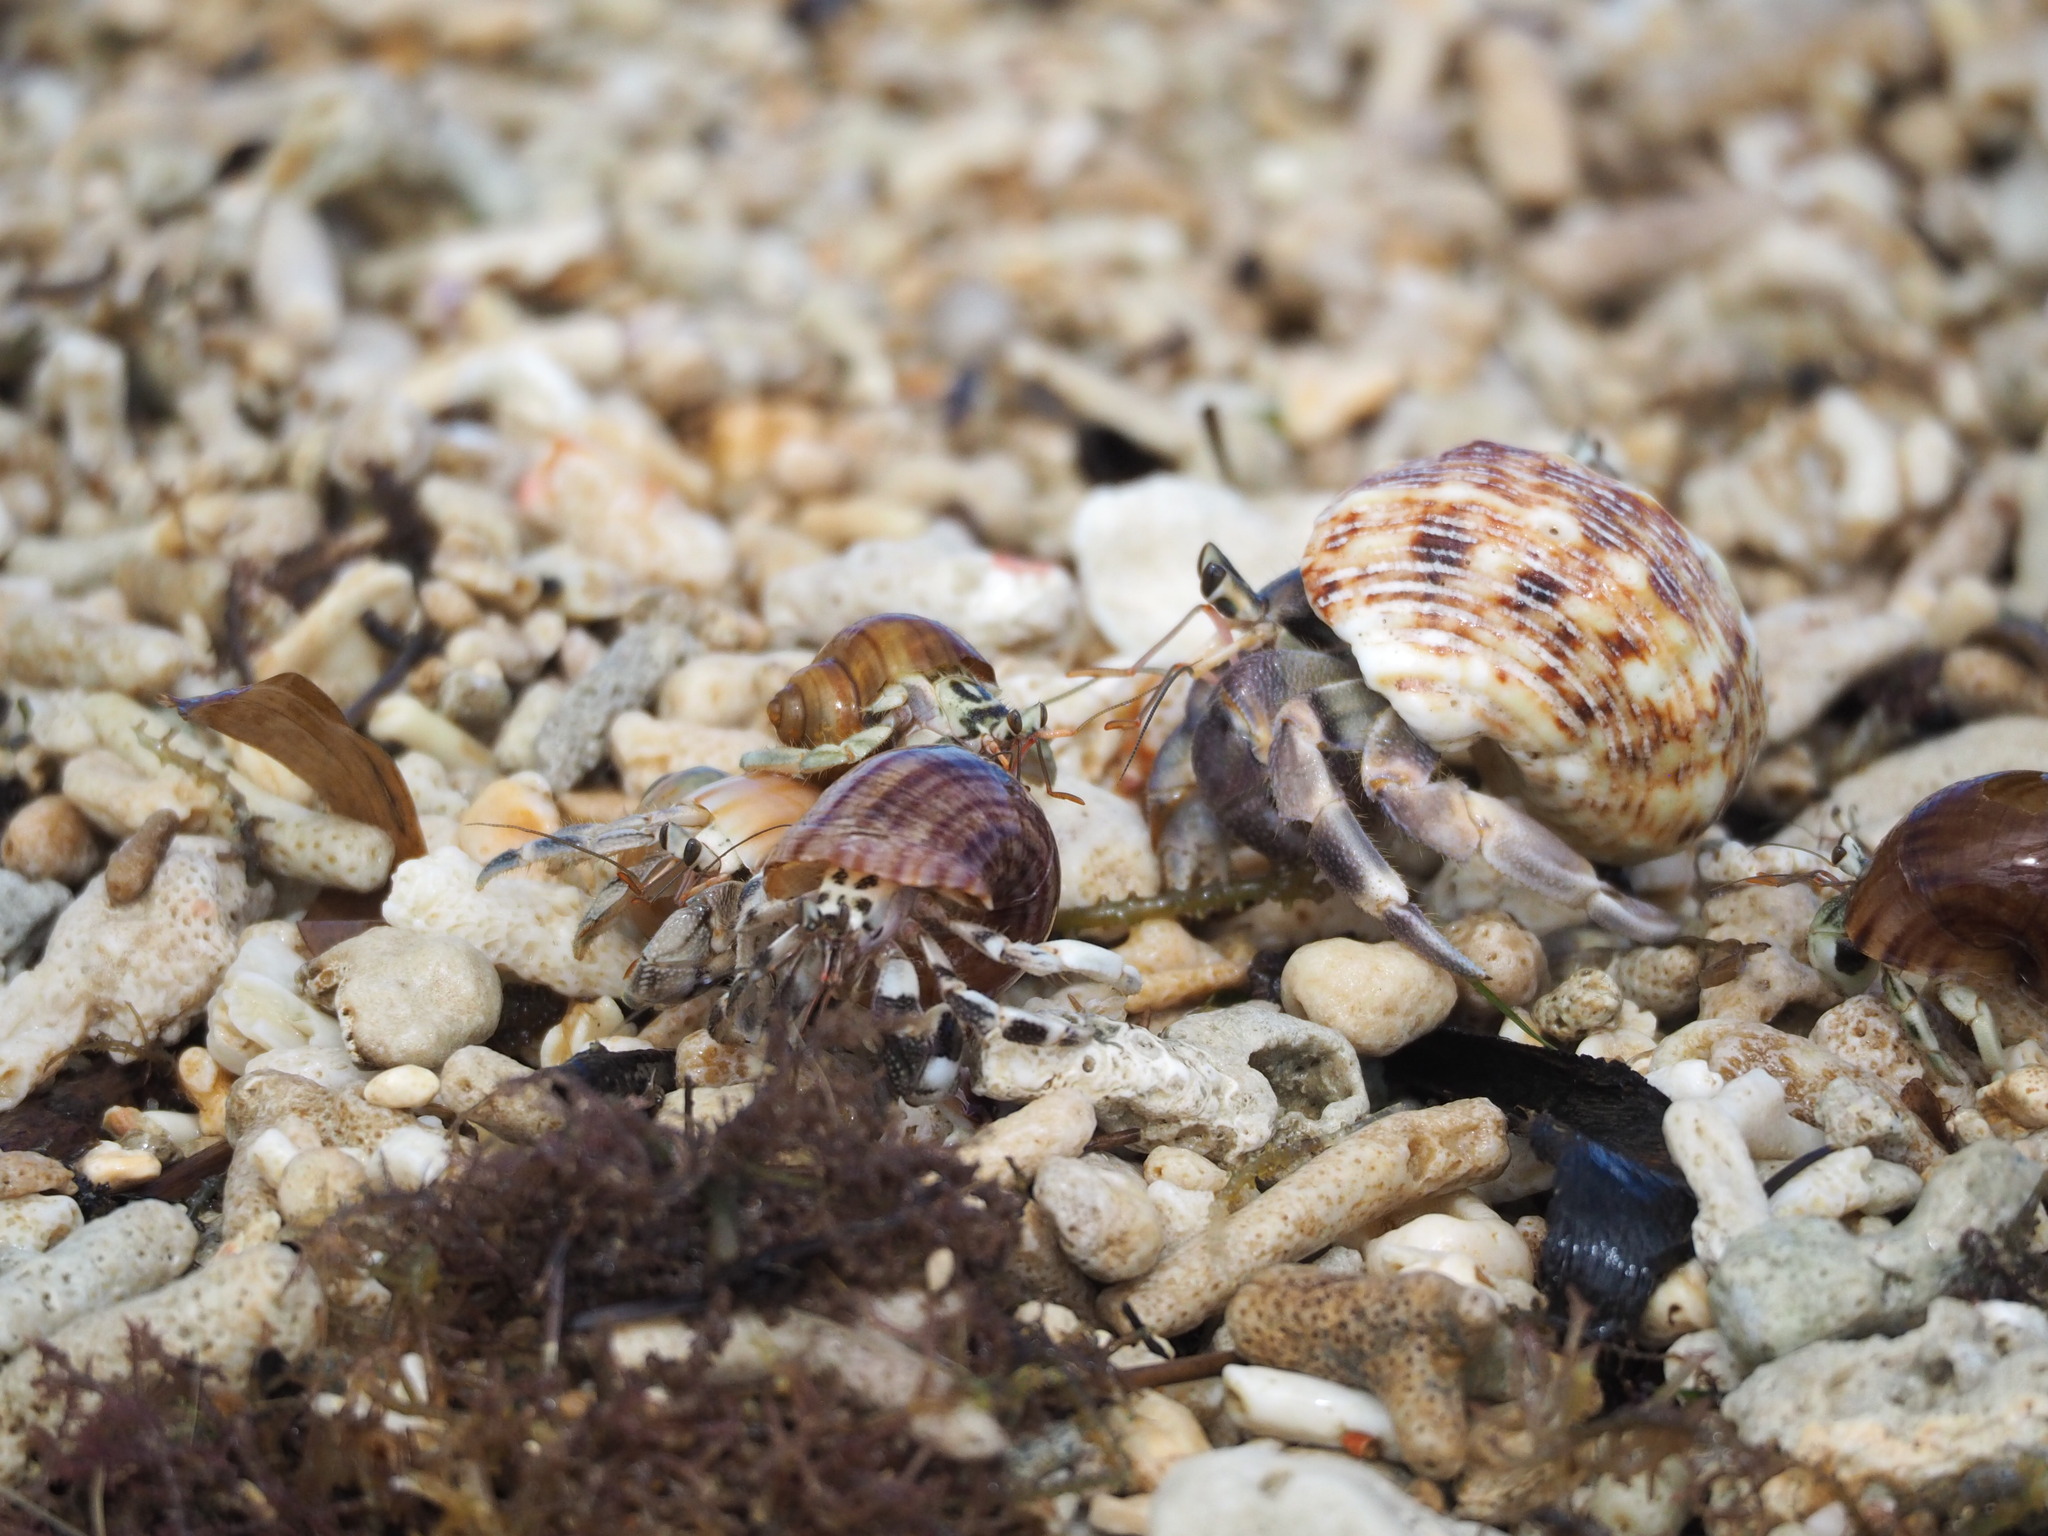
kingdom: Animalia
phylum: Arthropoda
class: Malacostraca
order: Decapoda
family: Coenobitidae
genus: Coenobita
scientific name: Coenobita rugosus
